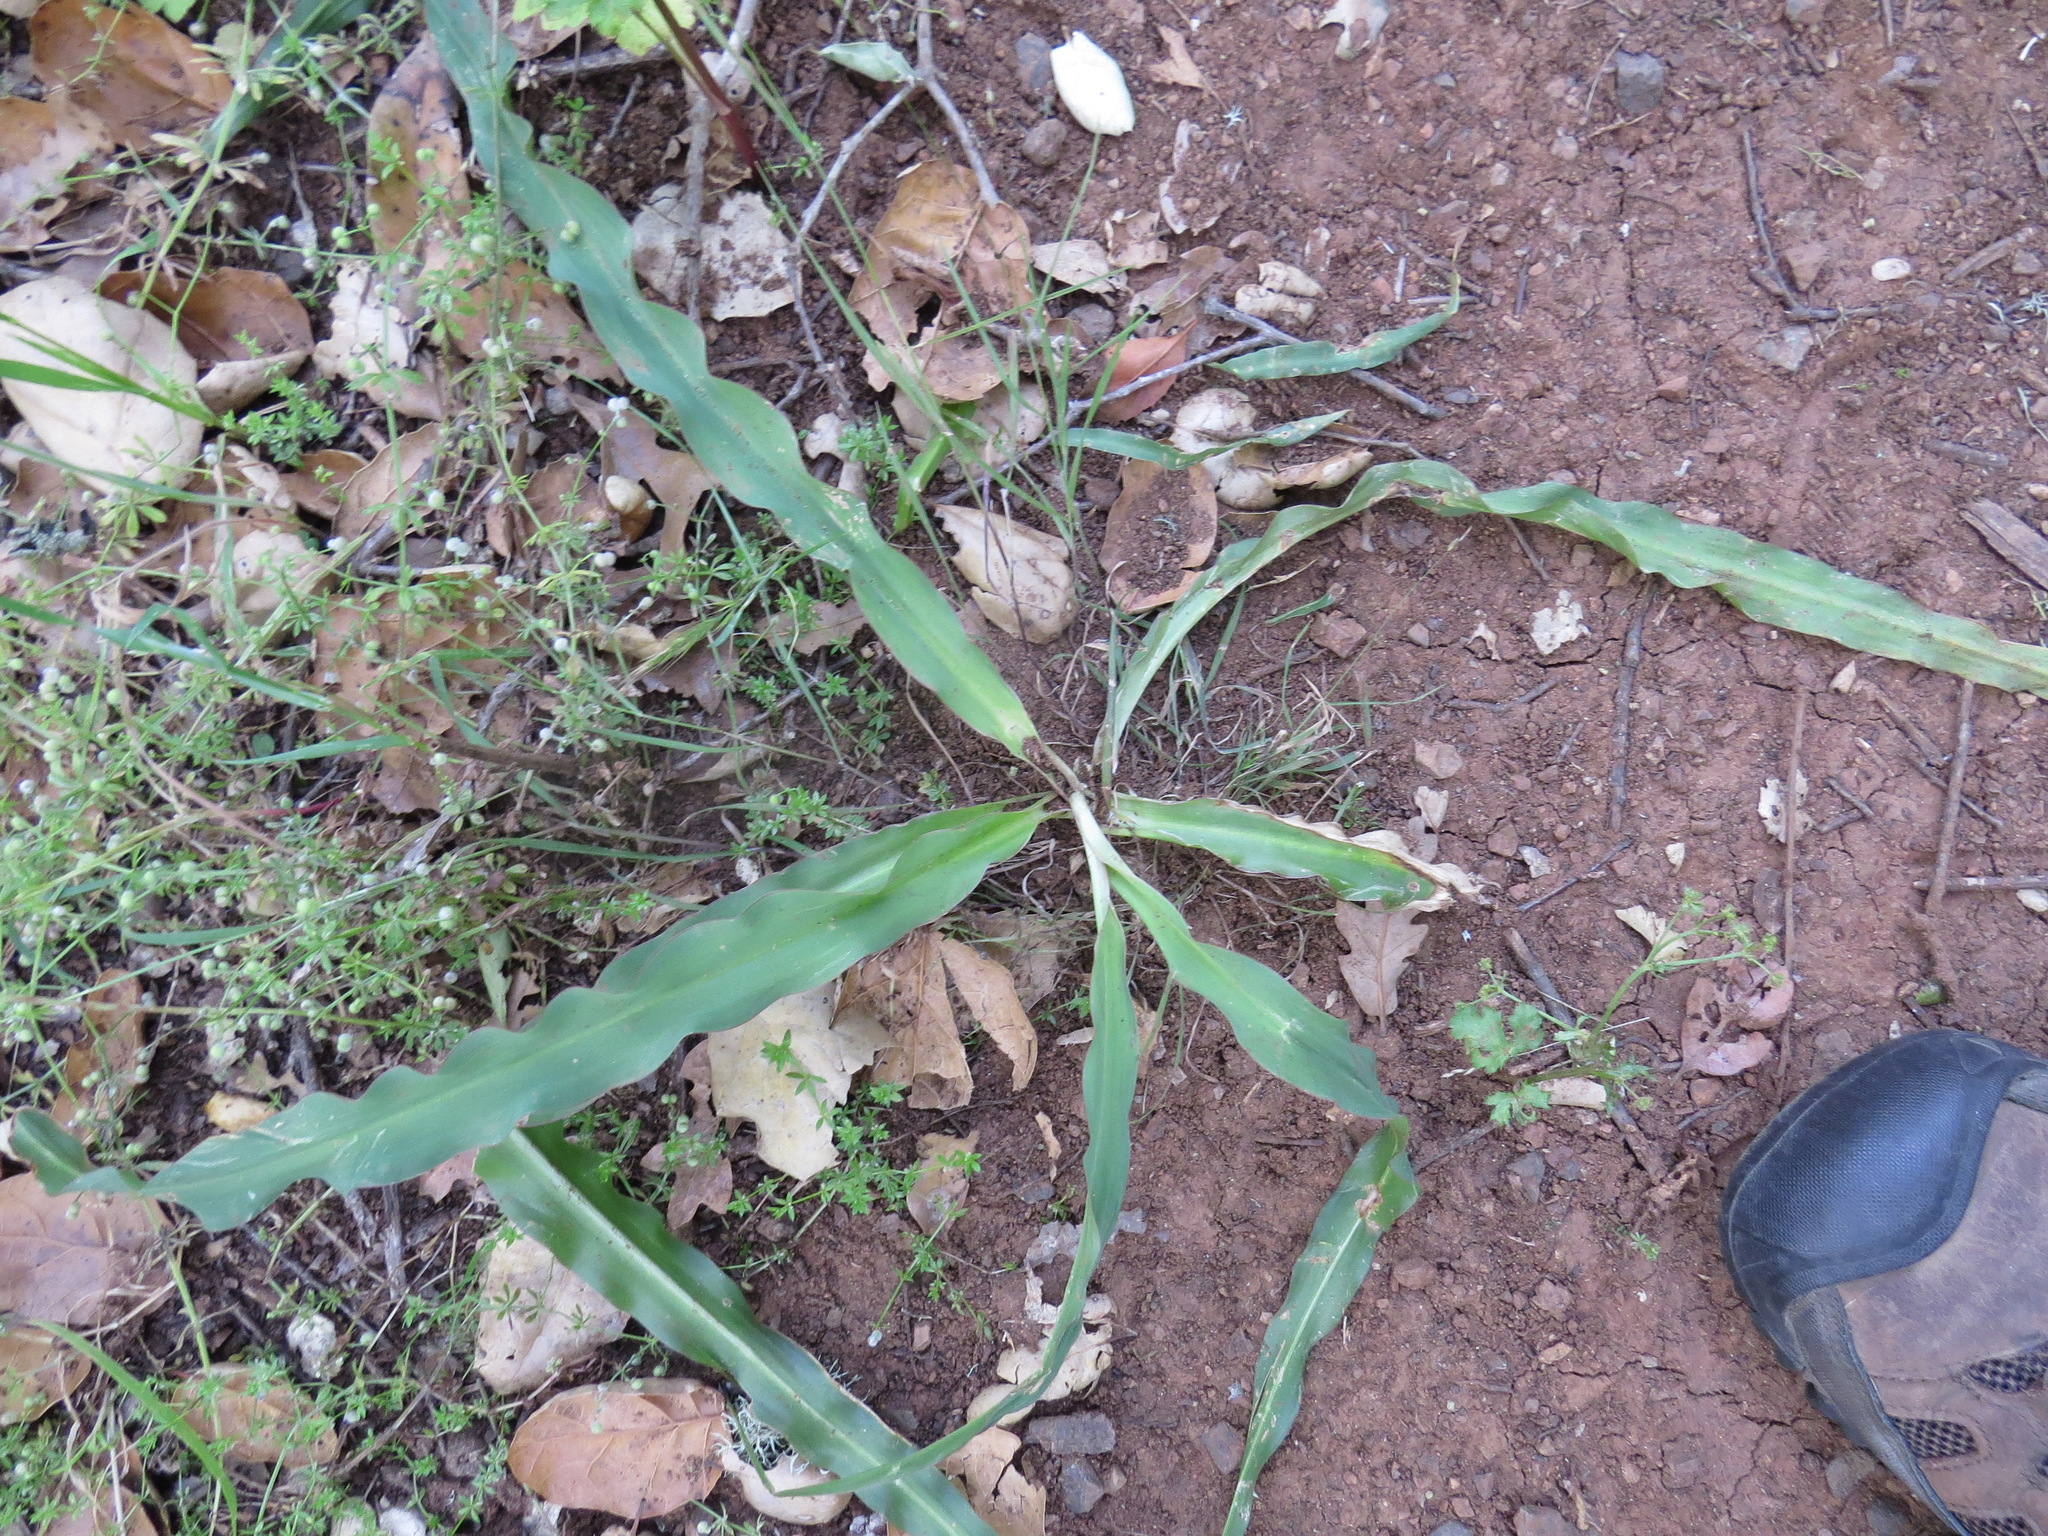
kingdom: Plantae
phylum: Tracheophyta
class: Liliopsida
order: Asparagales
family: Asparagaceae
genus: Chlorogalum
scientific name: Chlorogalum pomeridianum
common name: Amole
